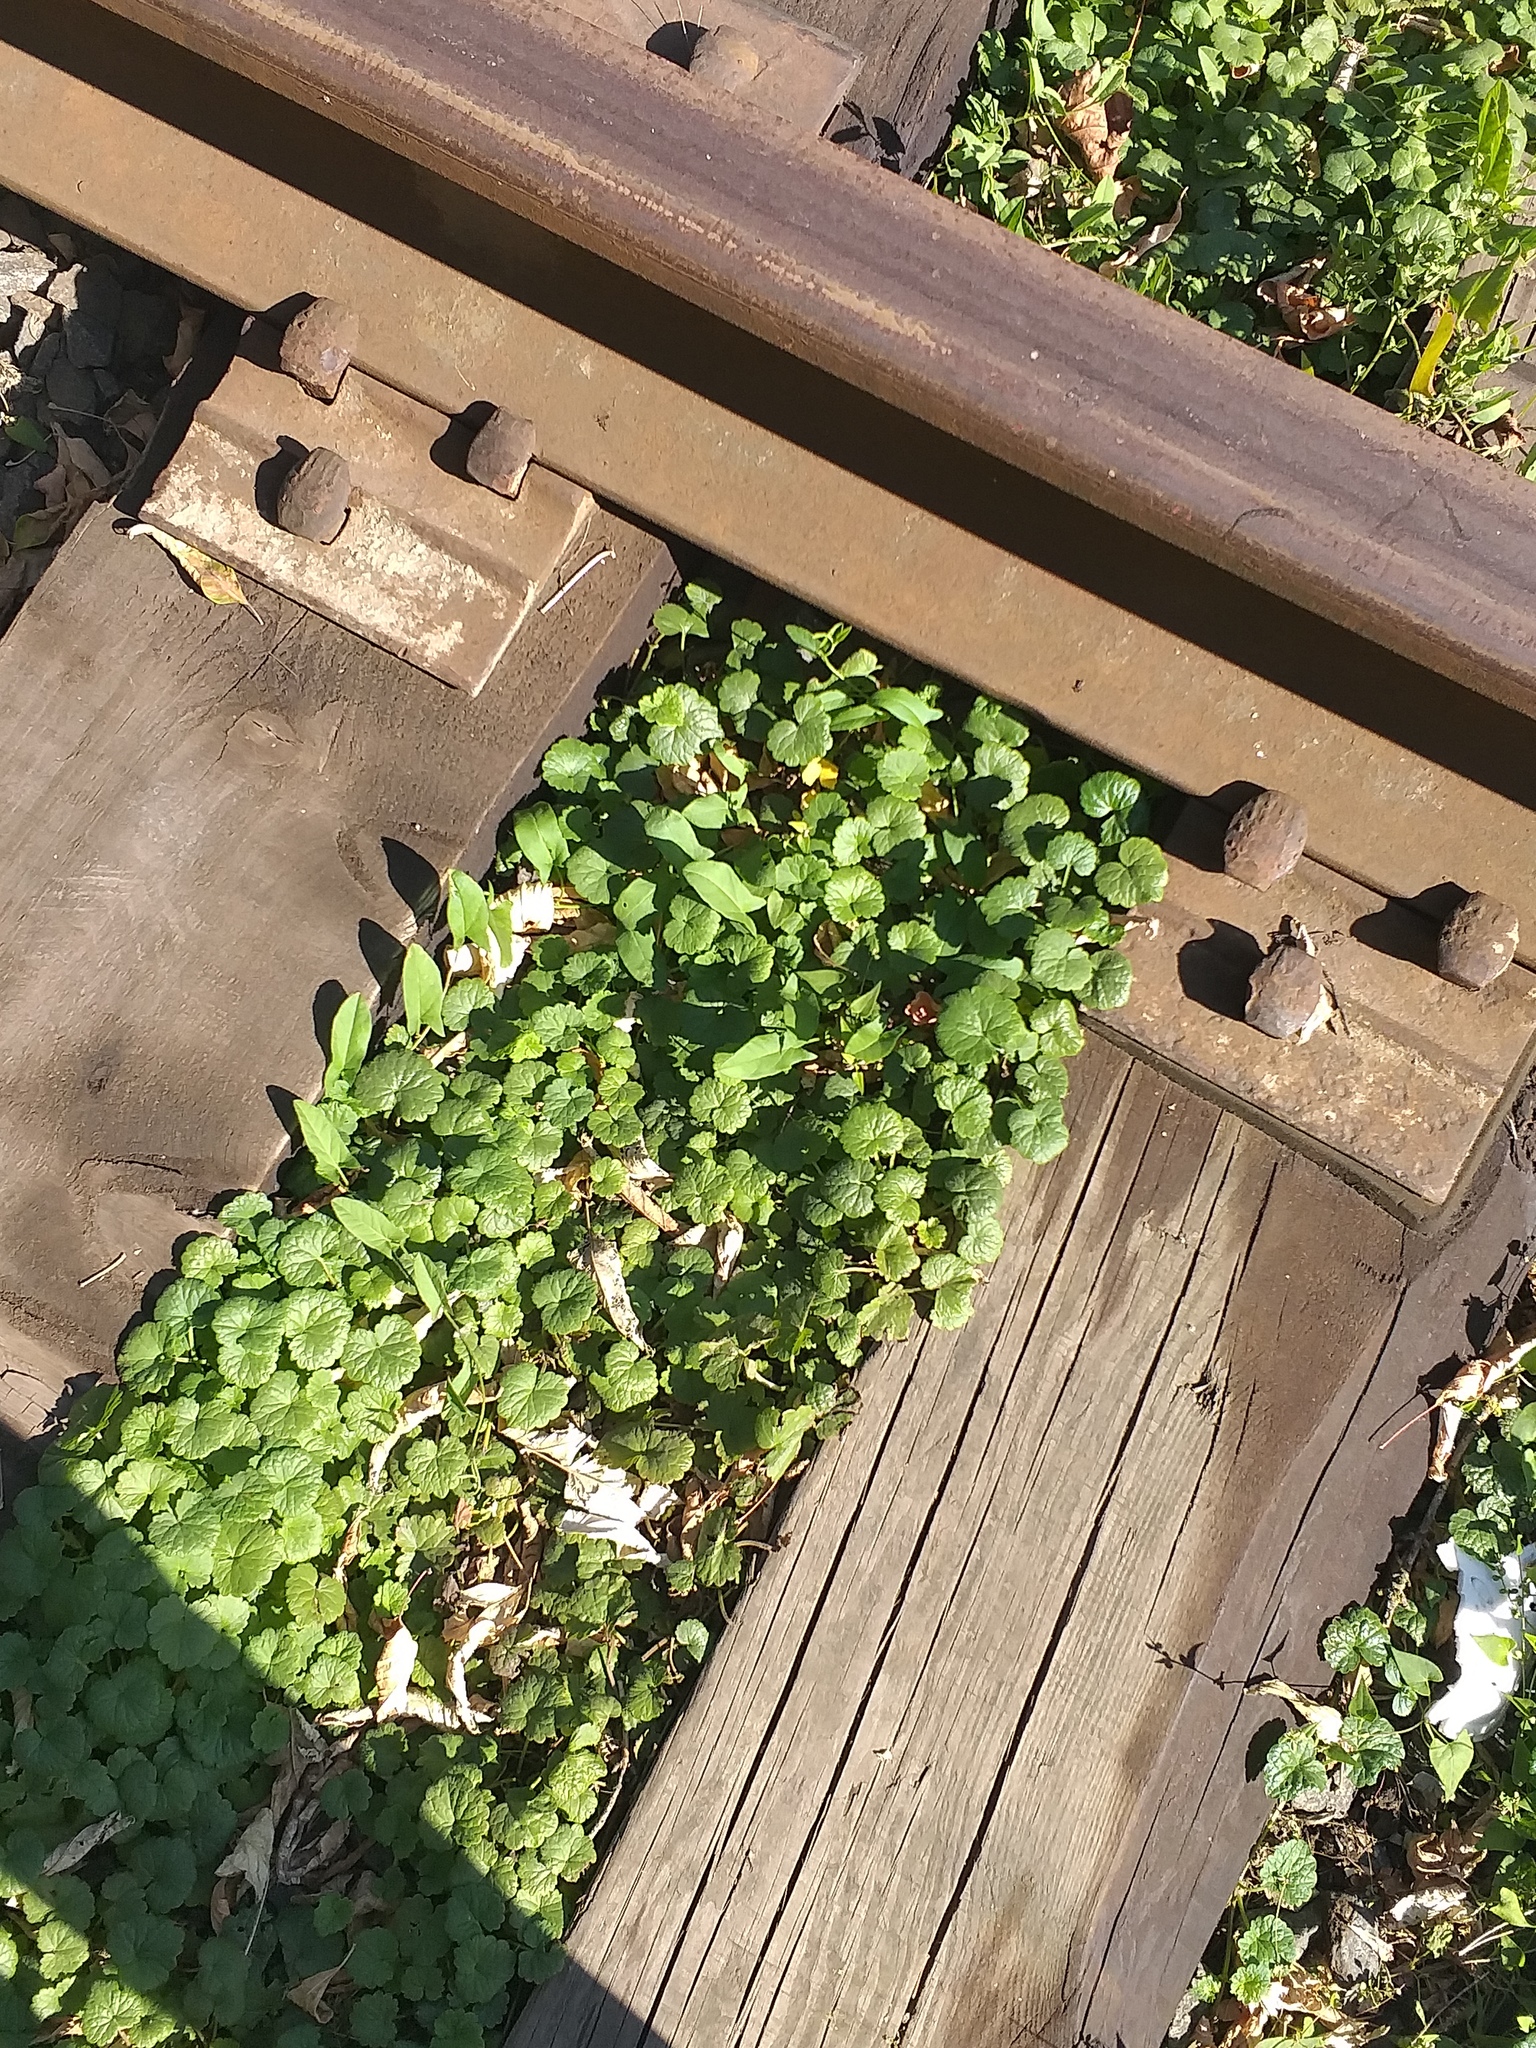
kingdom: Plantae
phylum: Tracheophyta
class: Magnoliopsida
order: Lamiales
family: Lamiaceae
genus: Glechoma
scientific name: Glechoma hederacea
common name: Ground ivy
